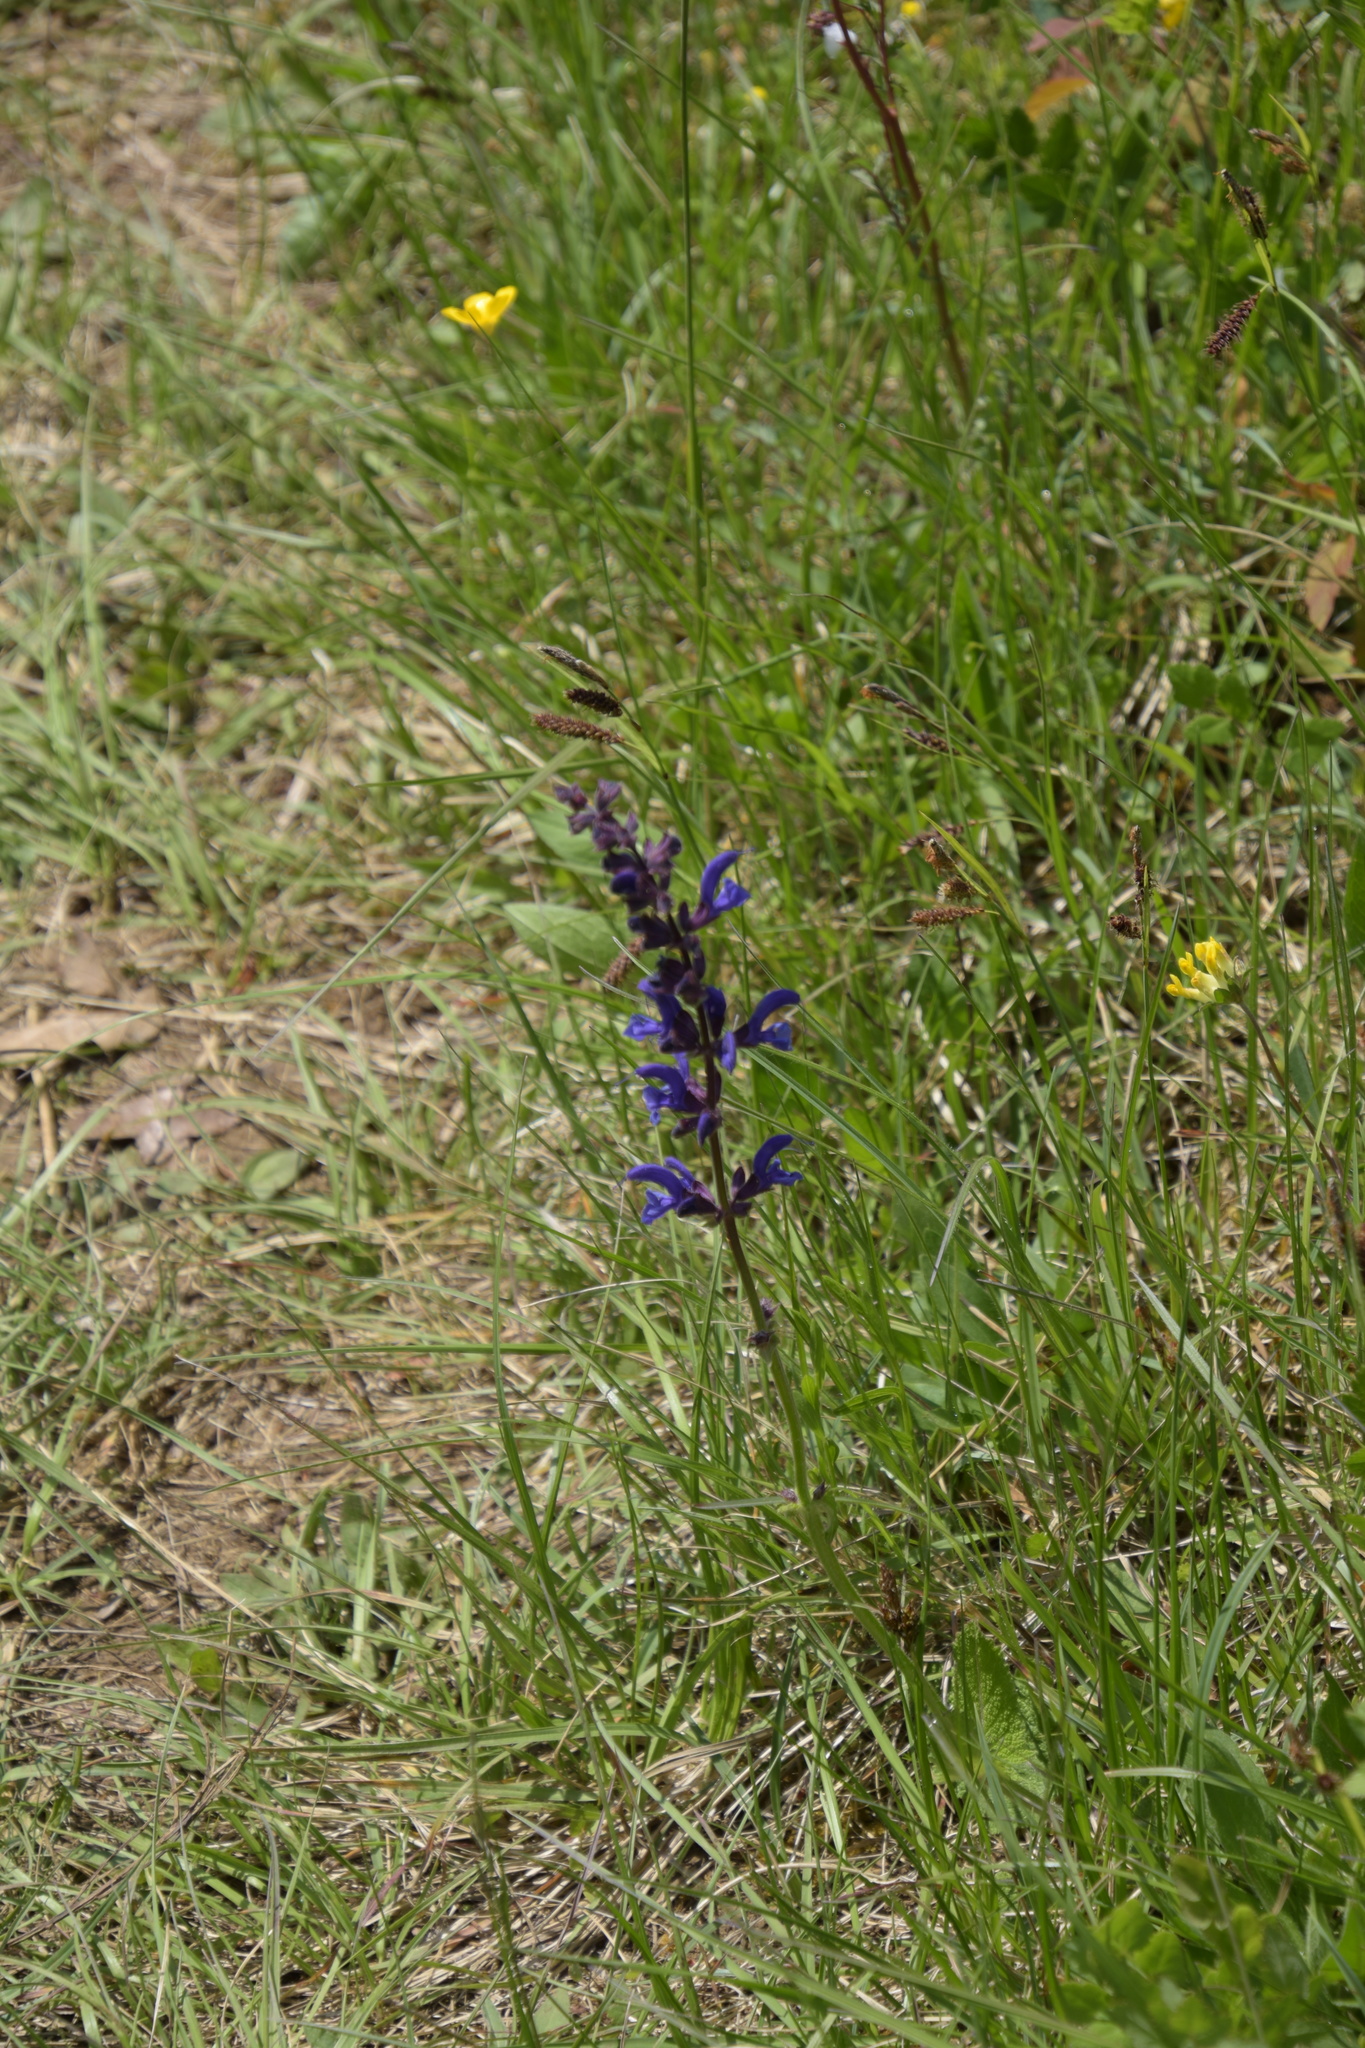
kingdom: Plantae
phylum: Tracheophyta
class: Magnoliopsida
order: Lamiales
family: Lamiaceae
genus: Salvia
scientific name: Salvia pratensis
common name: Meadow sage
